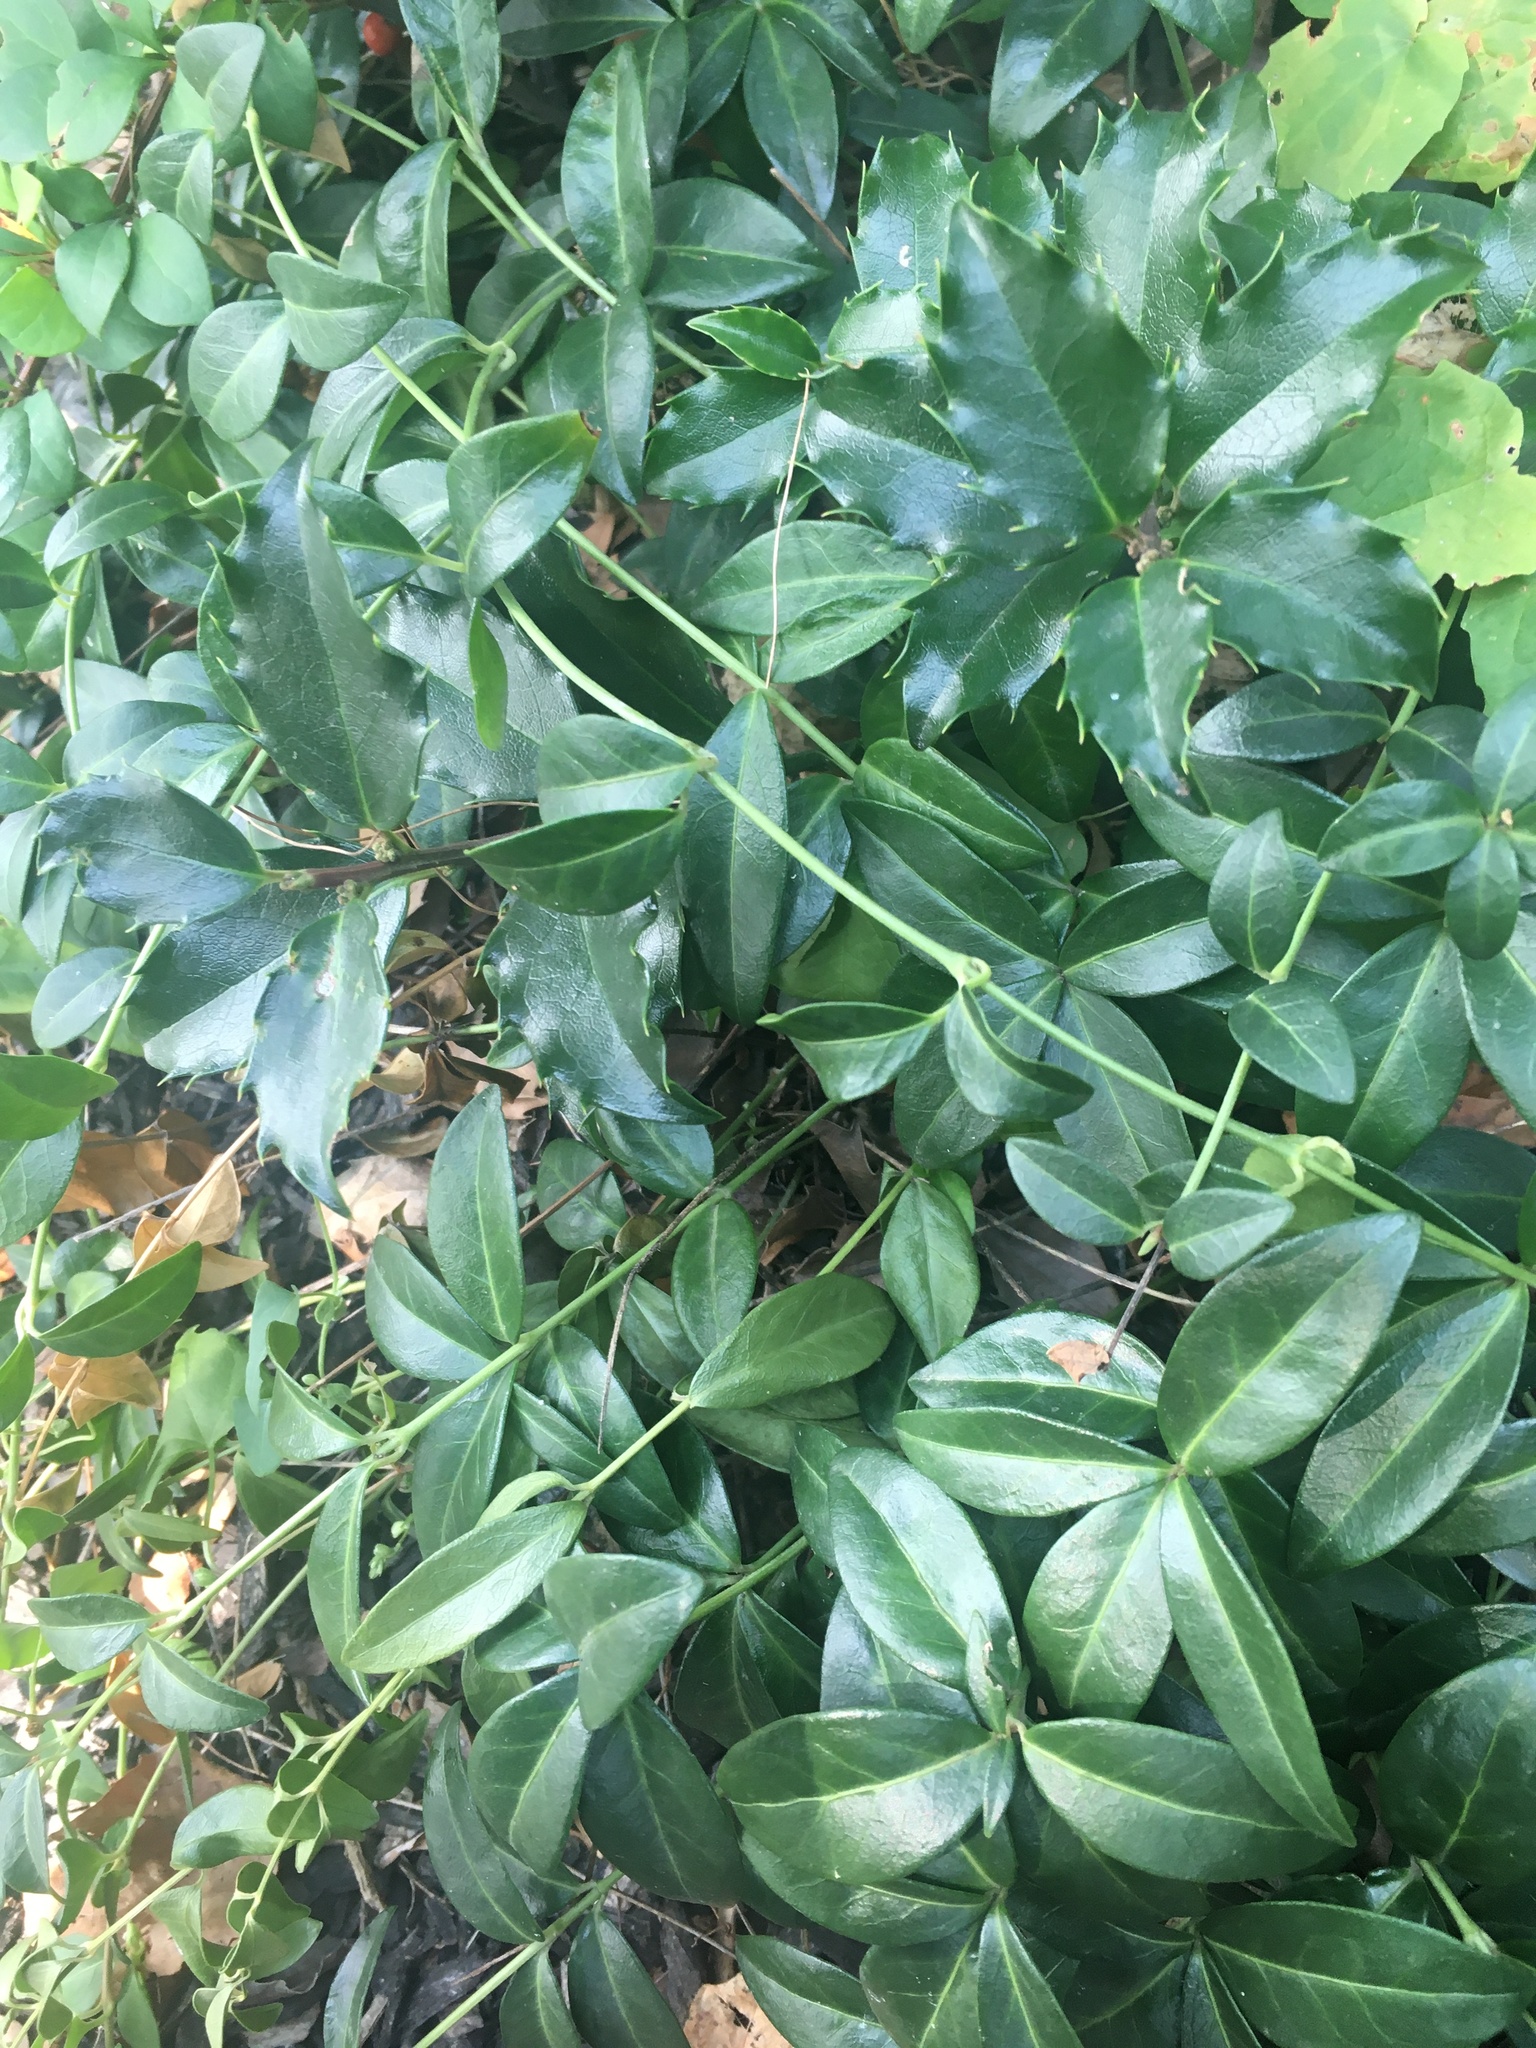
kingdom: Plantae
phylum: Tracheophyta
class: Magnoliopsida
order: Gentianales
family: Apocynaceae
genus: Vinca
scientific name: Vinca minor
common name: Lesser periwinkle
